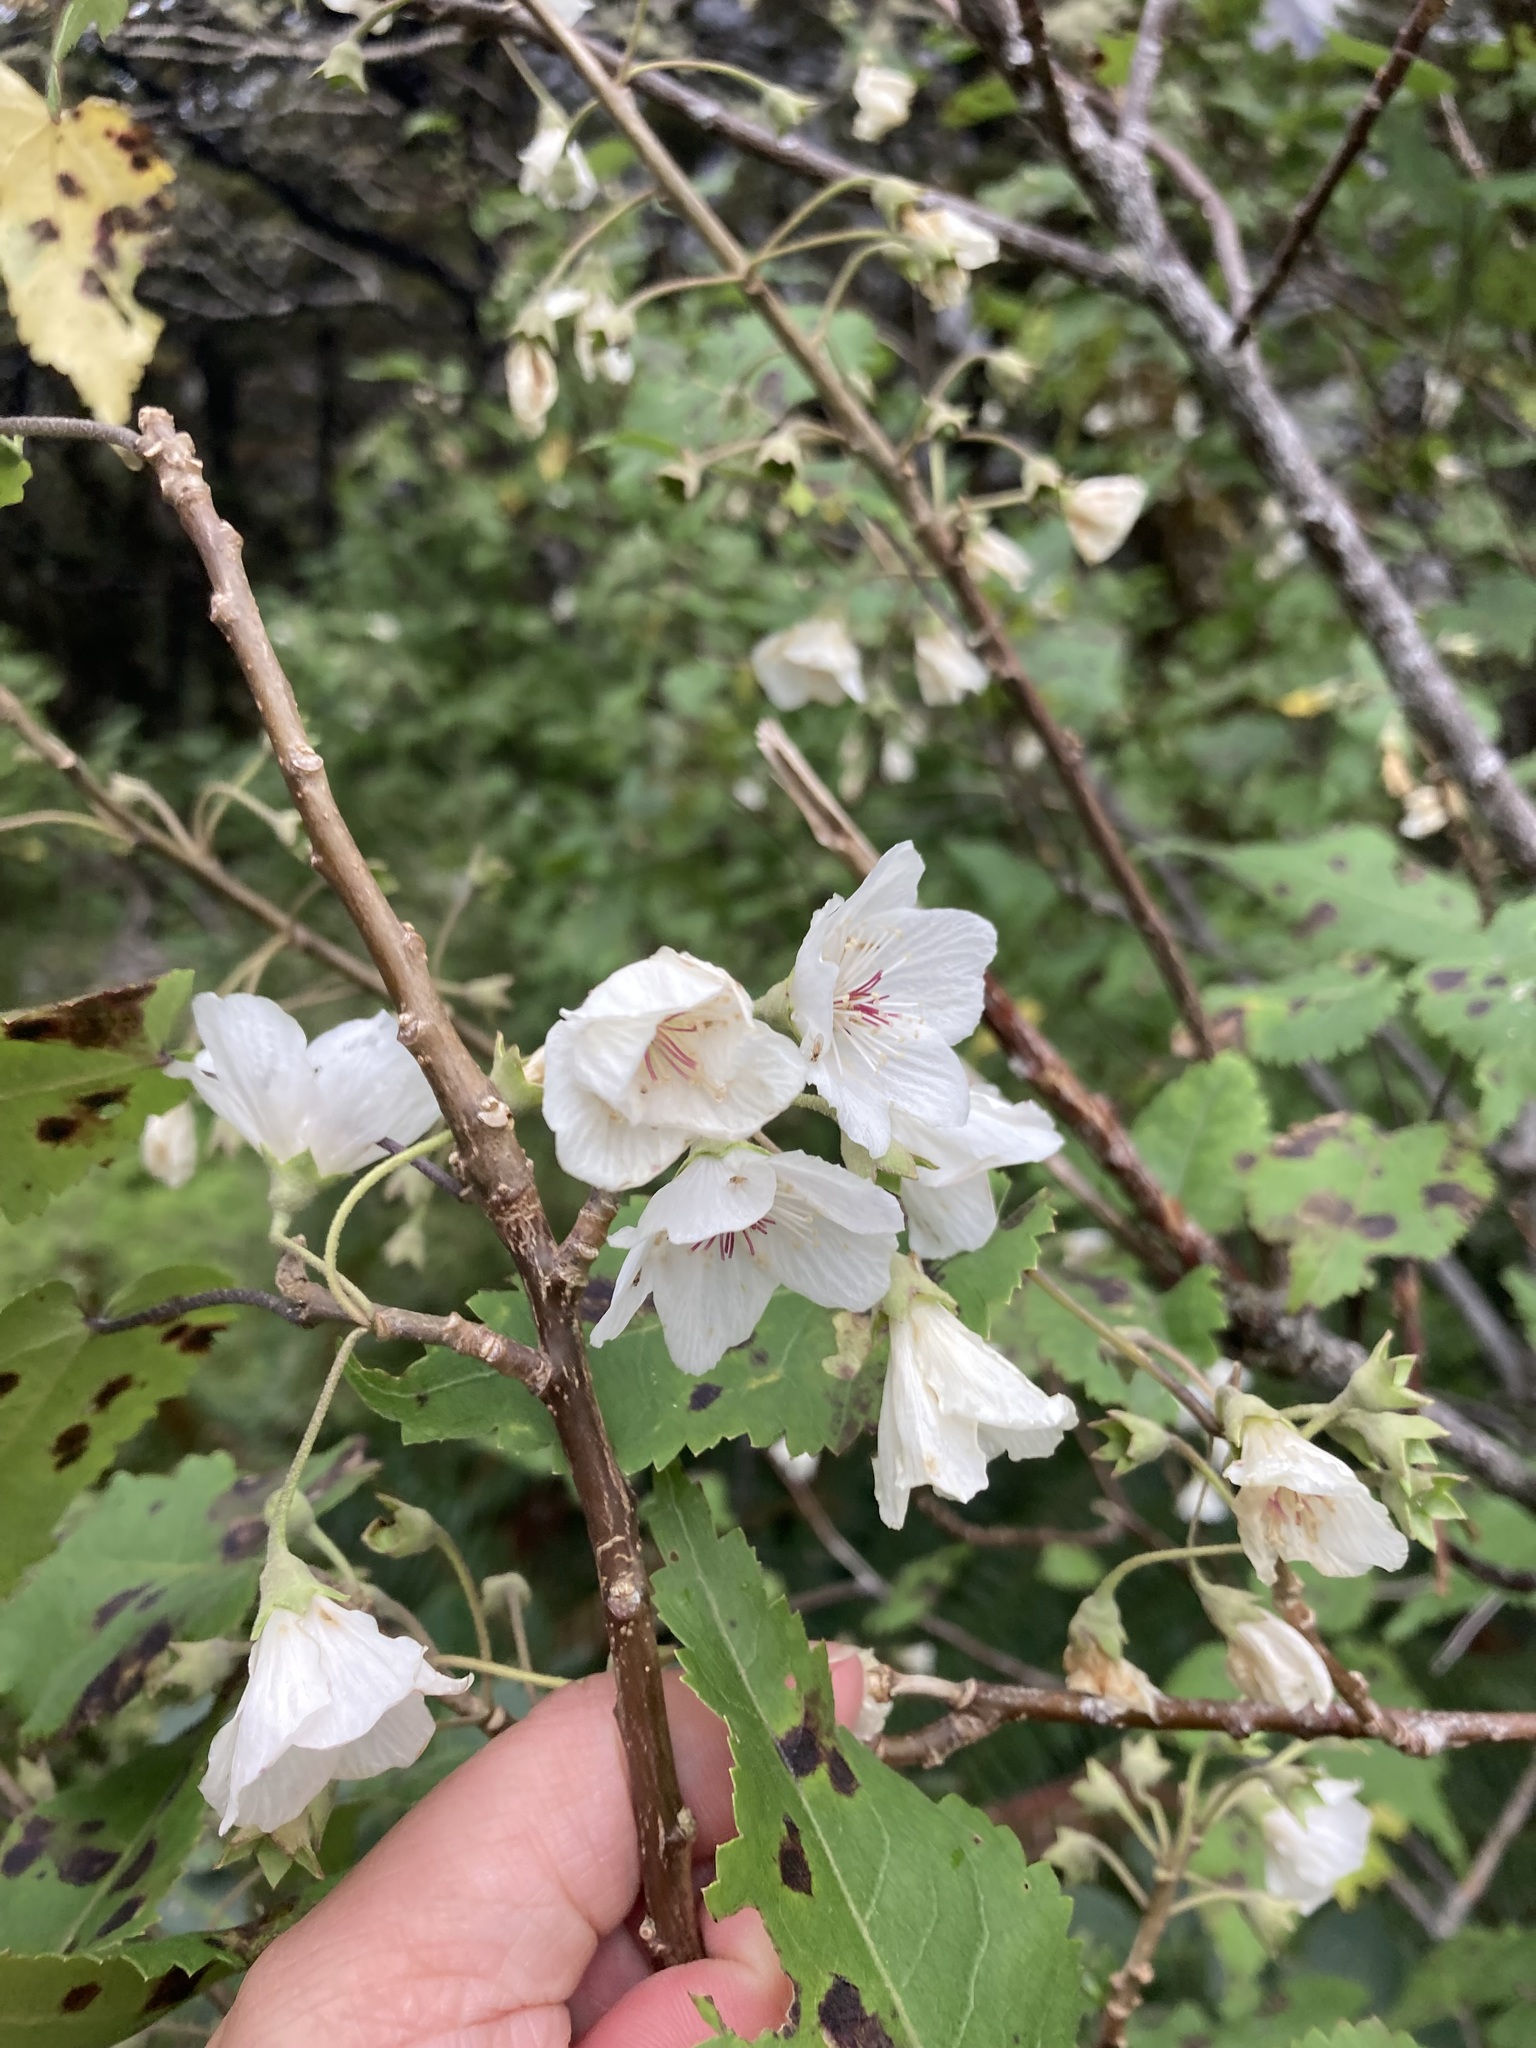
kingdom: Plantae
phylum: Tracheophyta
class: Magnoliopsida
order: Malvales
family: Malvaceae
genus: Hoheria
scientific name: Hoheria glabrata
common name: Mountain-ribbon
